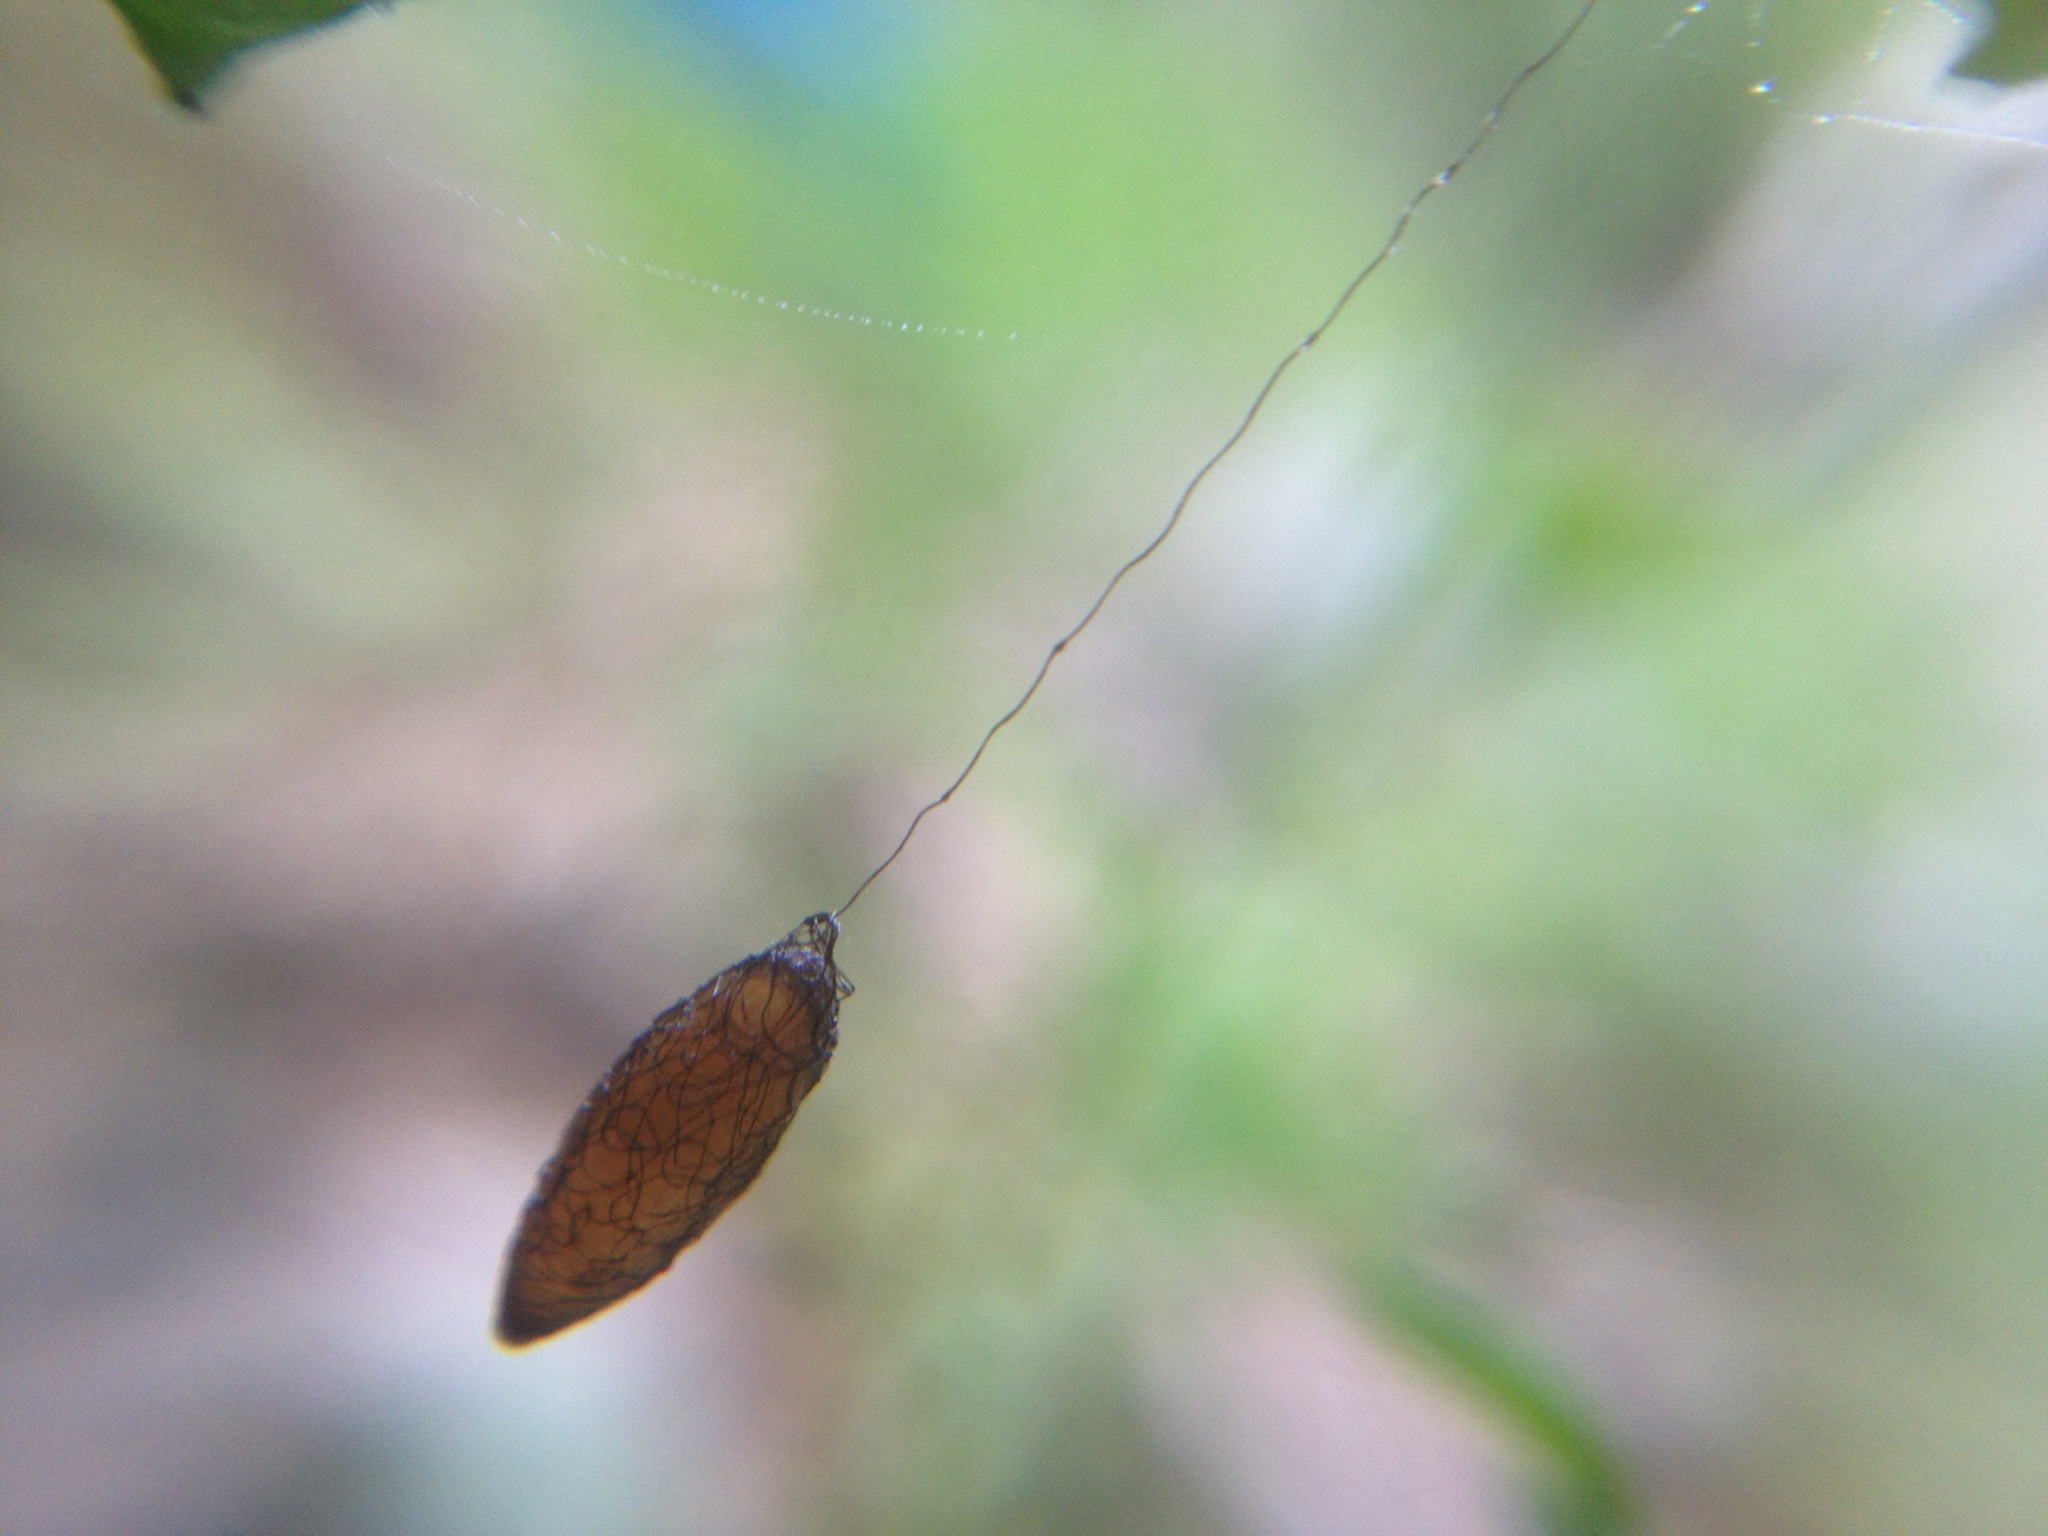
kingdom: Animalia
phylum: Arthropoda
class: Insecta
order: Hymenoptera
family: Braconidae
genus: Meteorus
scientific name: Meteorus pulchricornis
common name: Braconid wasp
